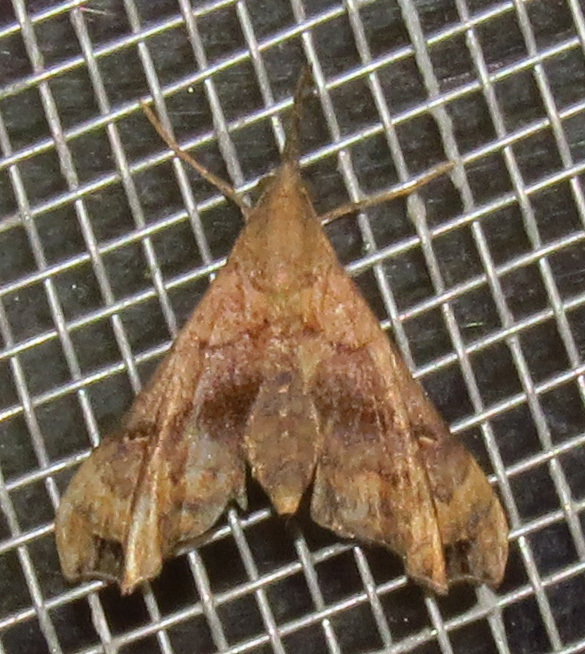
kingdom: Animalia
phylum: Arthropoda
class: Insecta
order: Lepidoptera
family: Erebidae
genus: Palthis
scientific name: Palthis asopialis
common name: Faint-spotted palthis moth
